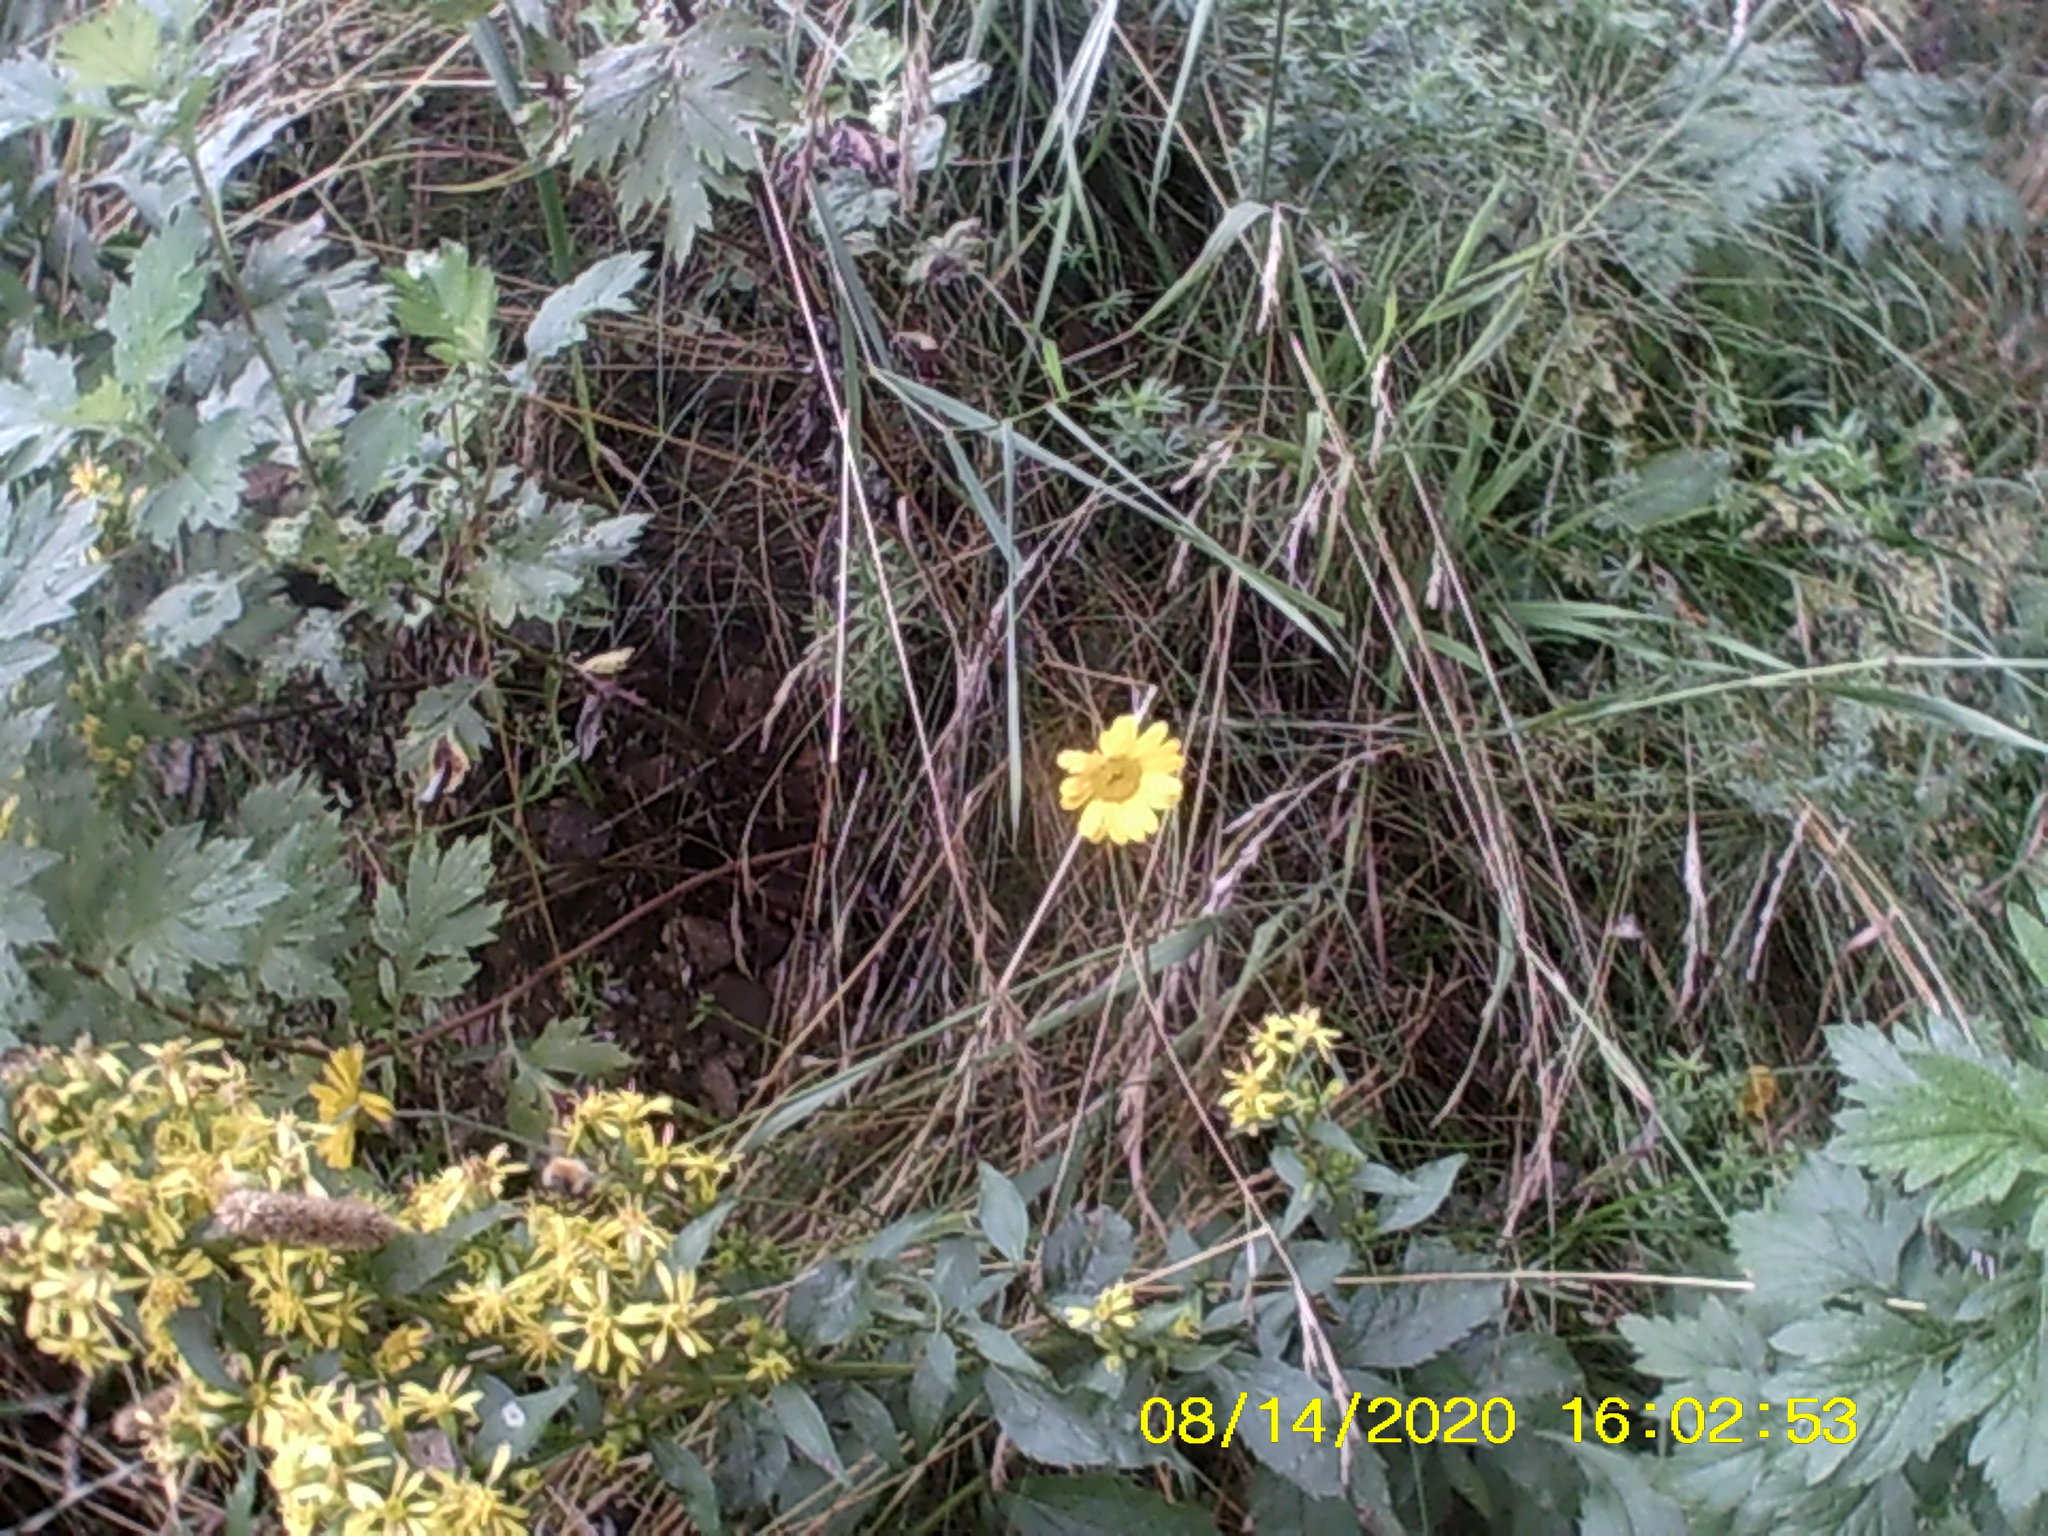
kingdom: Plantae
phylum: Tracheophyta
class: Magnoliopsida
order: Asterales
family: Asteraceae
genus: Cota
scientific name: Cota tinctoria
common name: Golden chamomile
